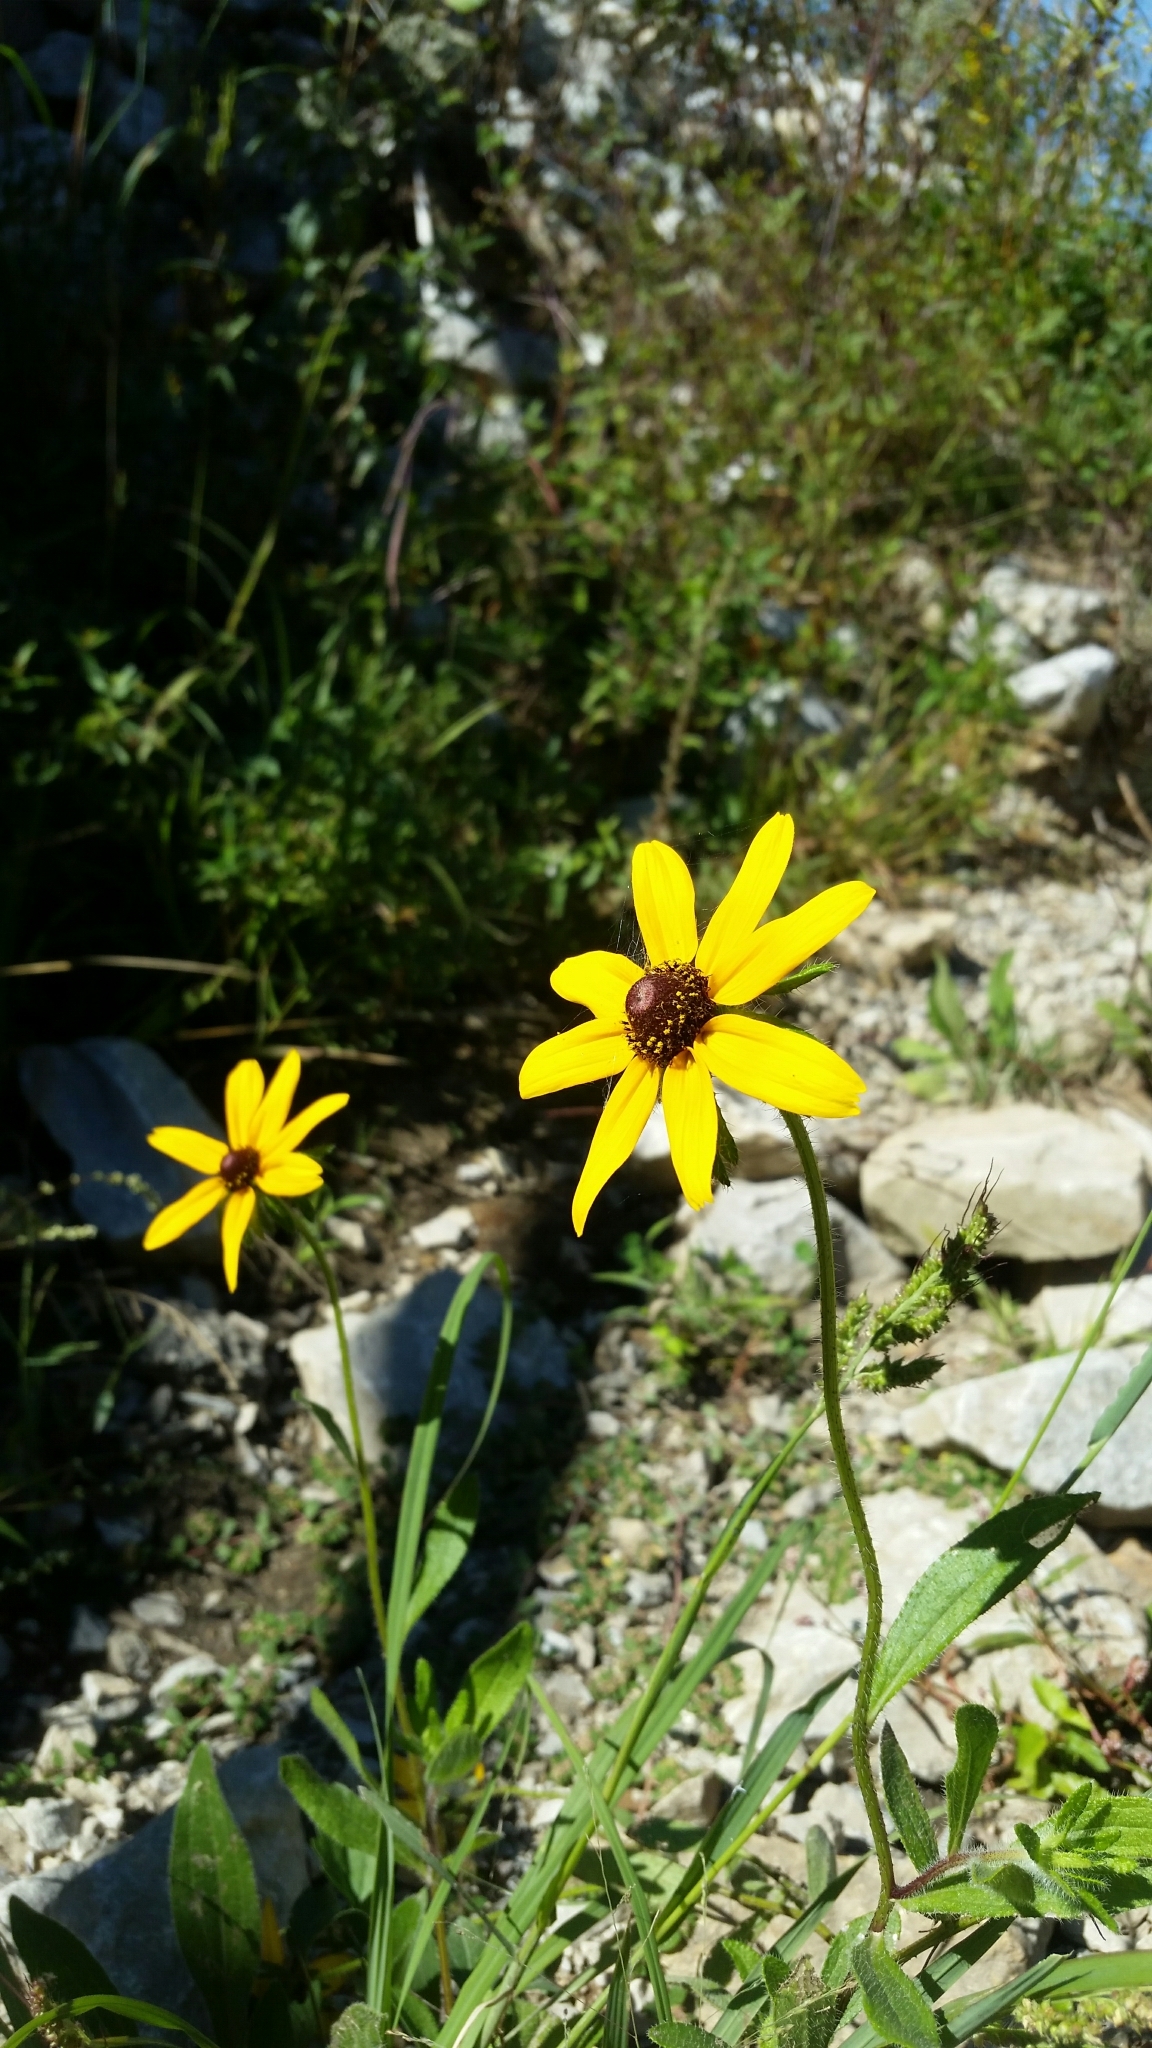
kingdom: Plantae
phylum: Tracheophyta
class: Magnoliopsida
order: Asterales
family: Asteraceae
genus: Rudbeckia
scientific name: Rudbeckia hirta
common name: Black-eyed-susan
